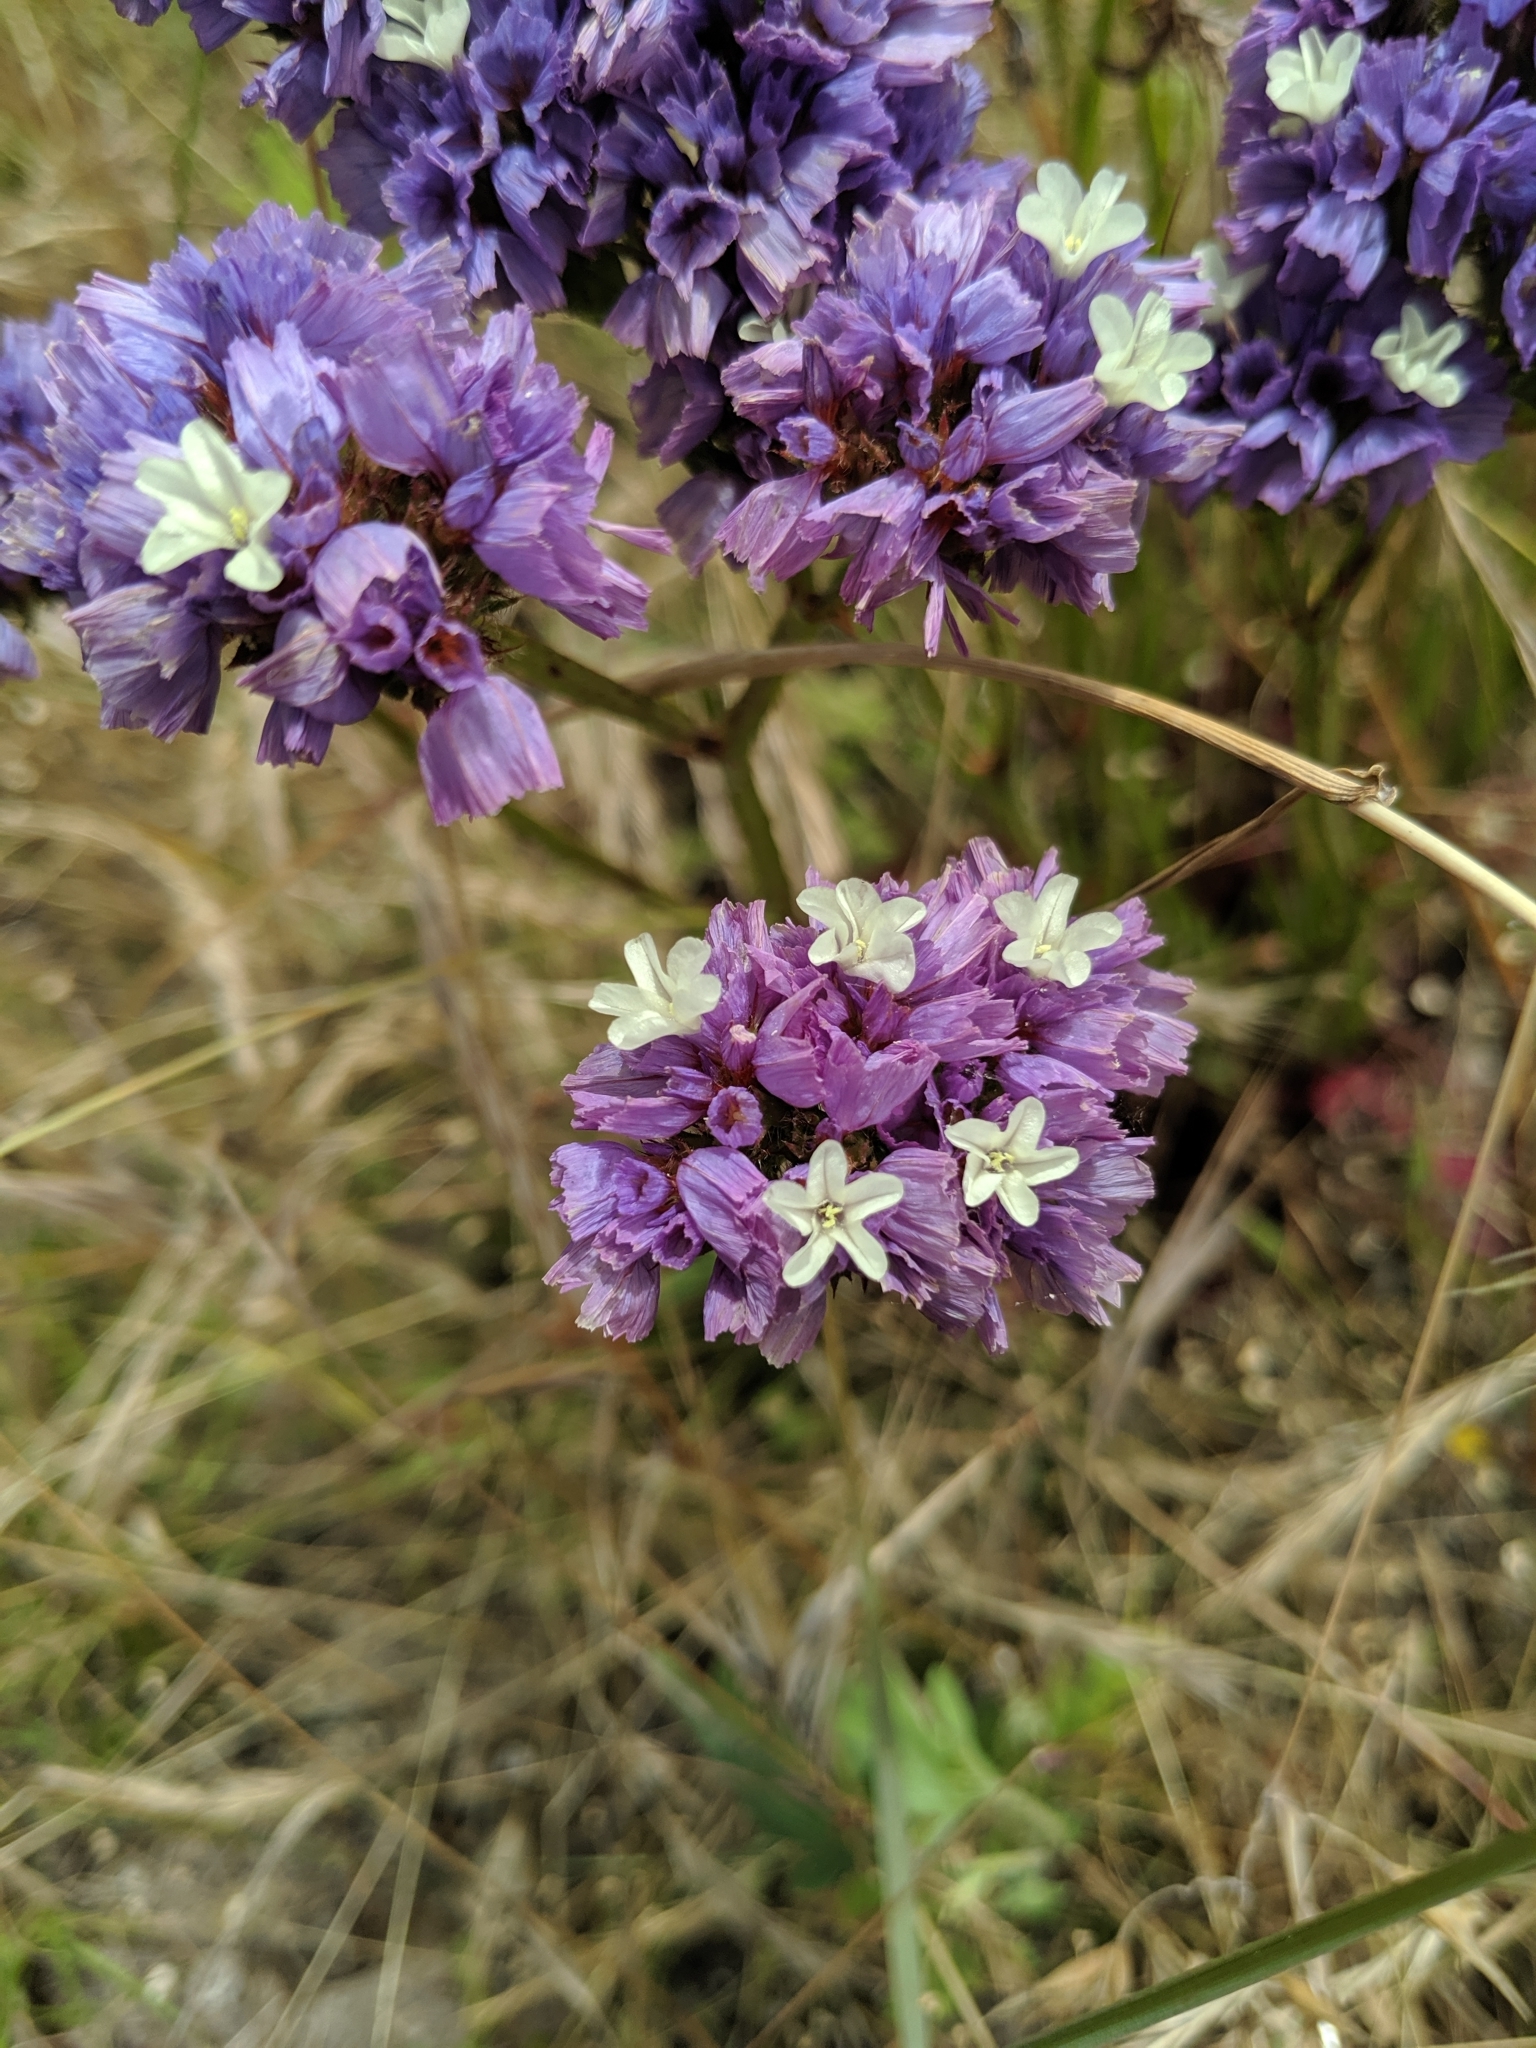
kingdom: Plantae
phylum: Tracheophyta
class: Magnoliopsida
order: Caryophyllales
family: Plumbaginaceae
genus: Limonium
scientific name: Limonium sinuatum
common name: Statice
